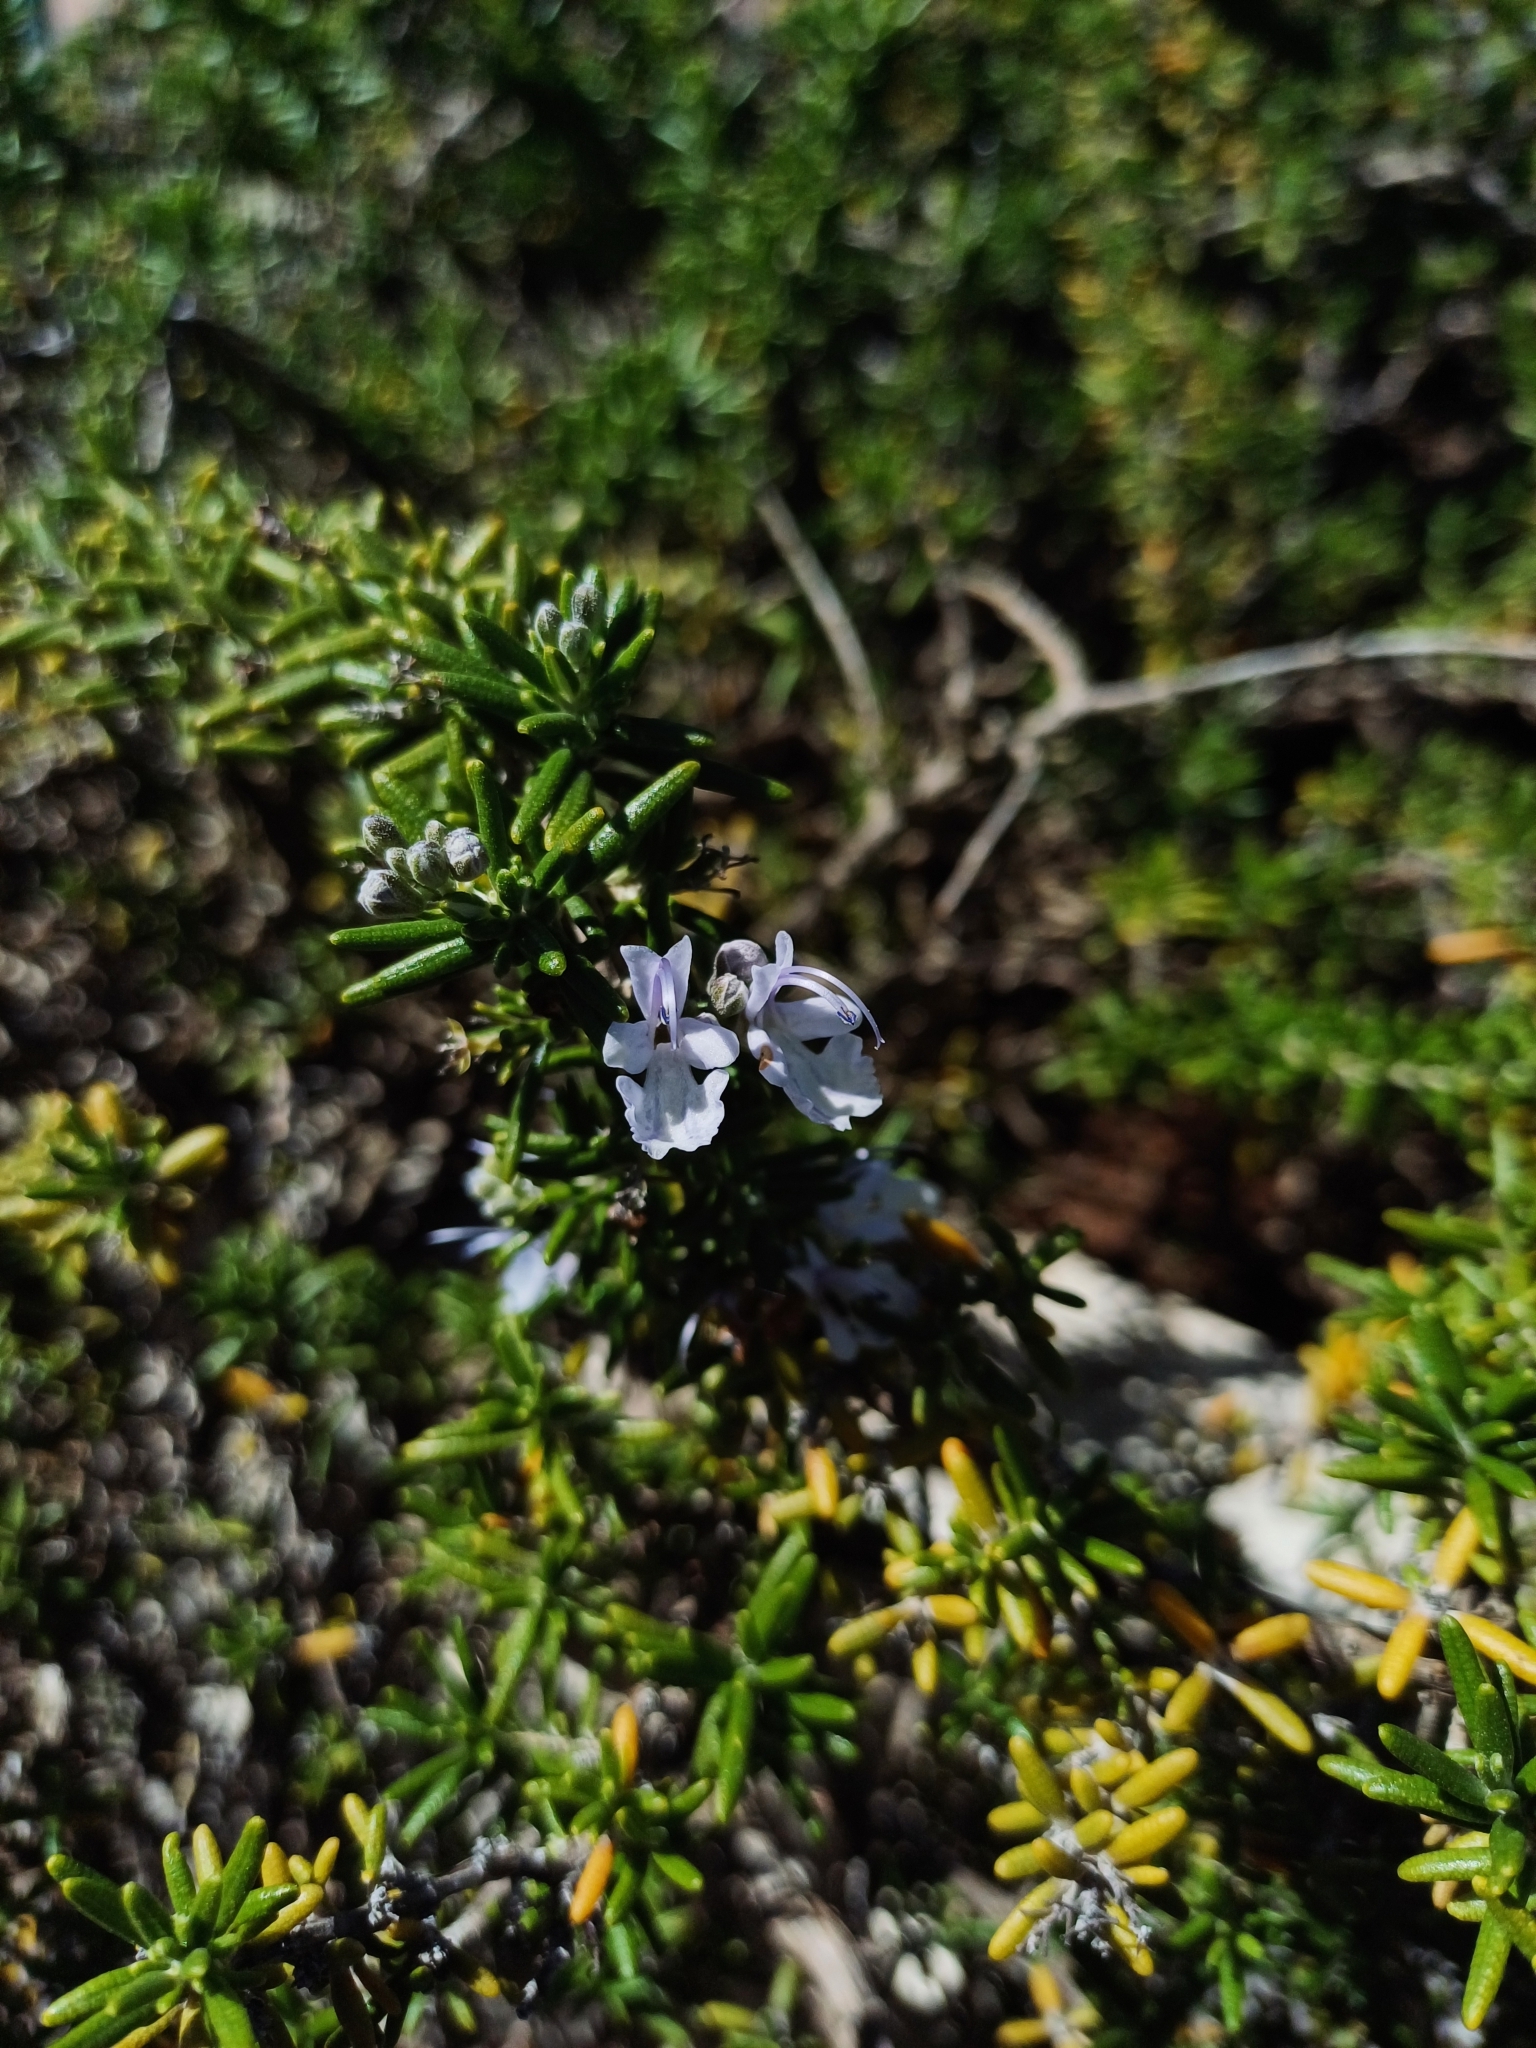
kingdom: Plantae
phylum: Tracheophyta
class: Magnoliopsida
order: Lamiales
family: Lamiaceae
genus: Salvia
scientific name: Salvia rosmarinus
